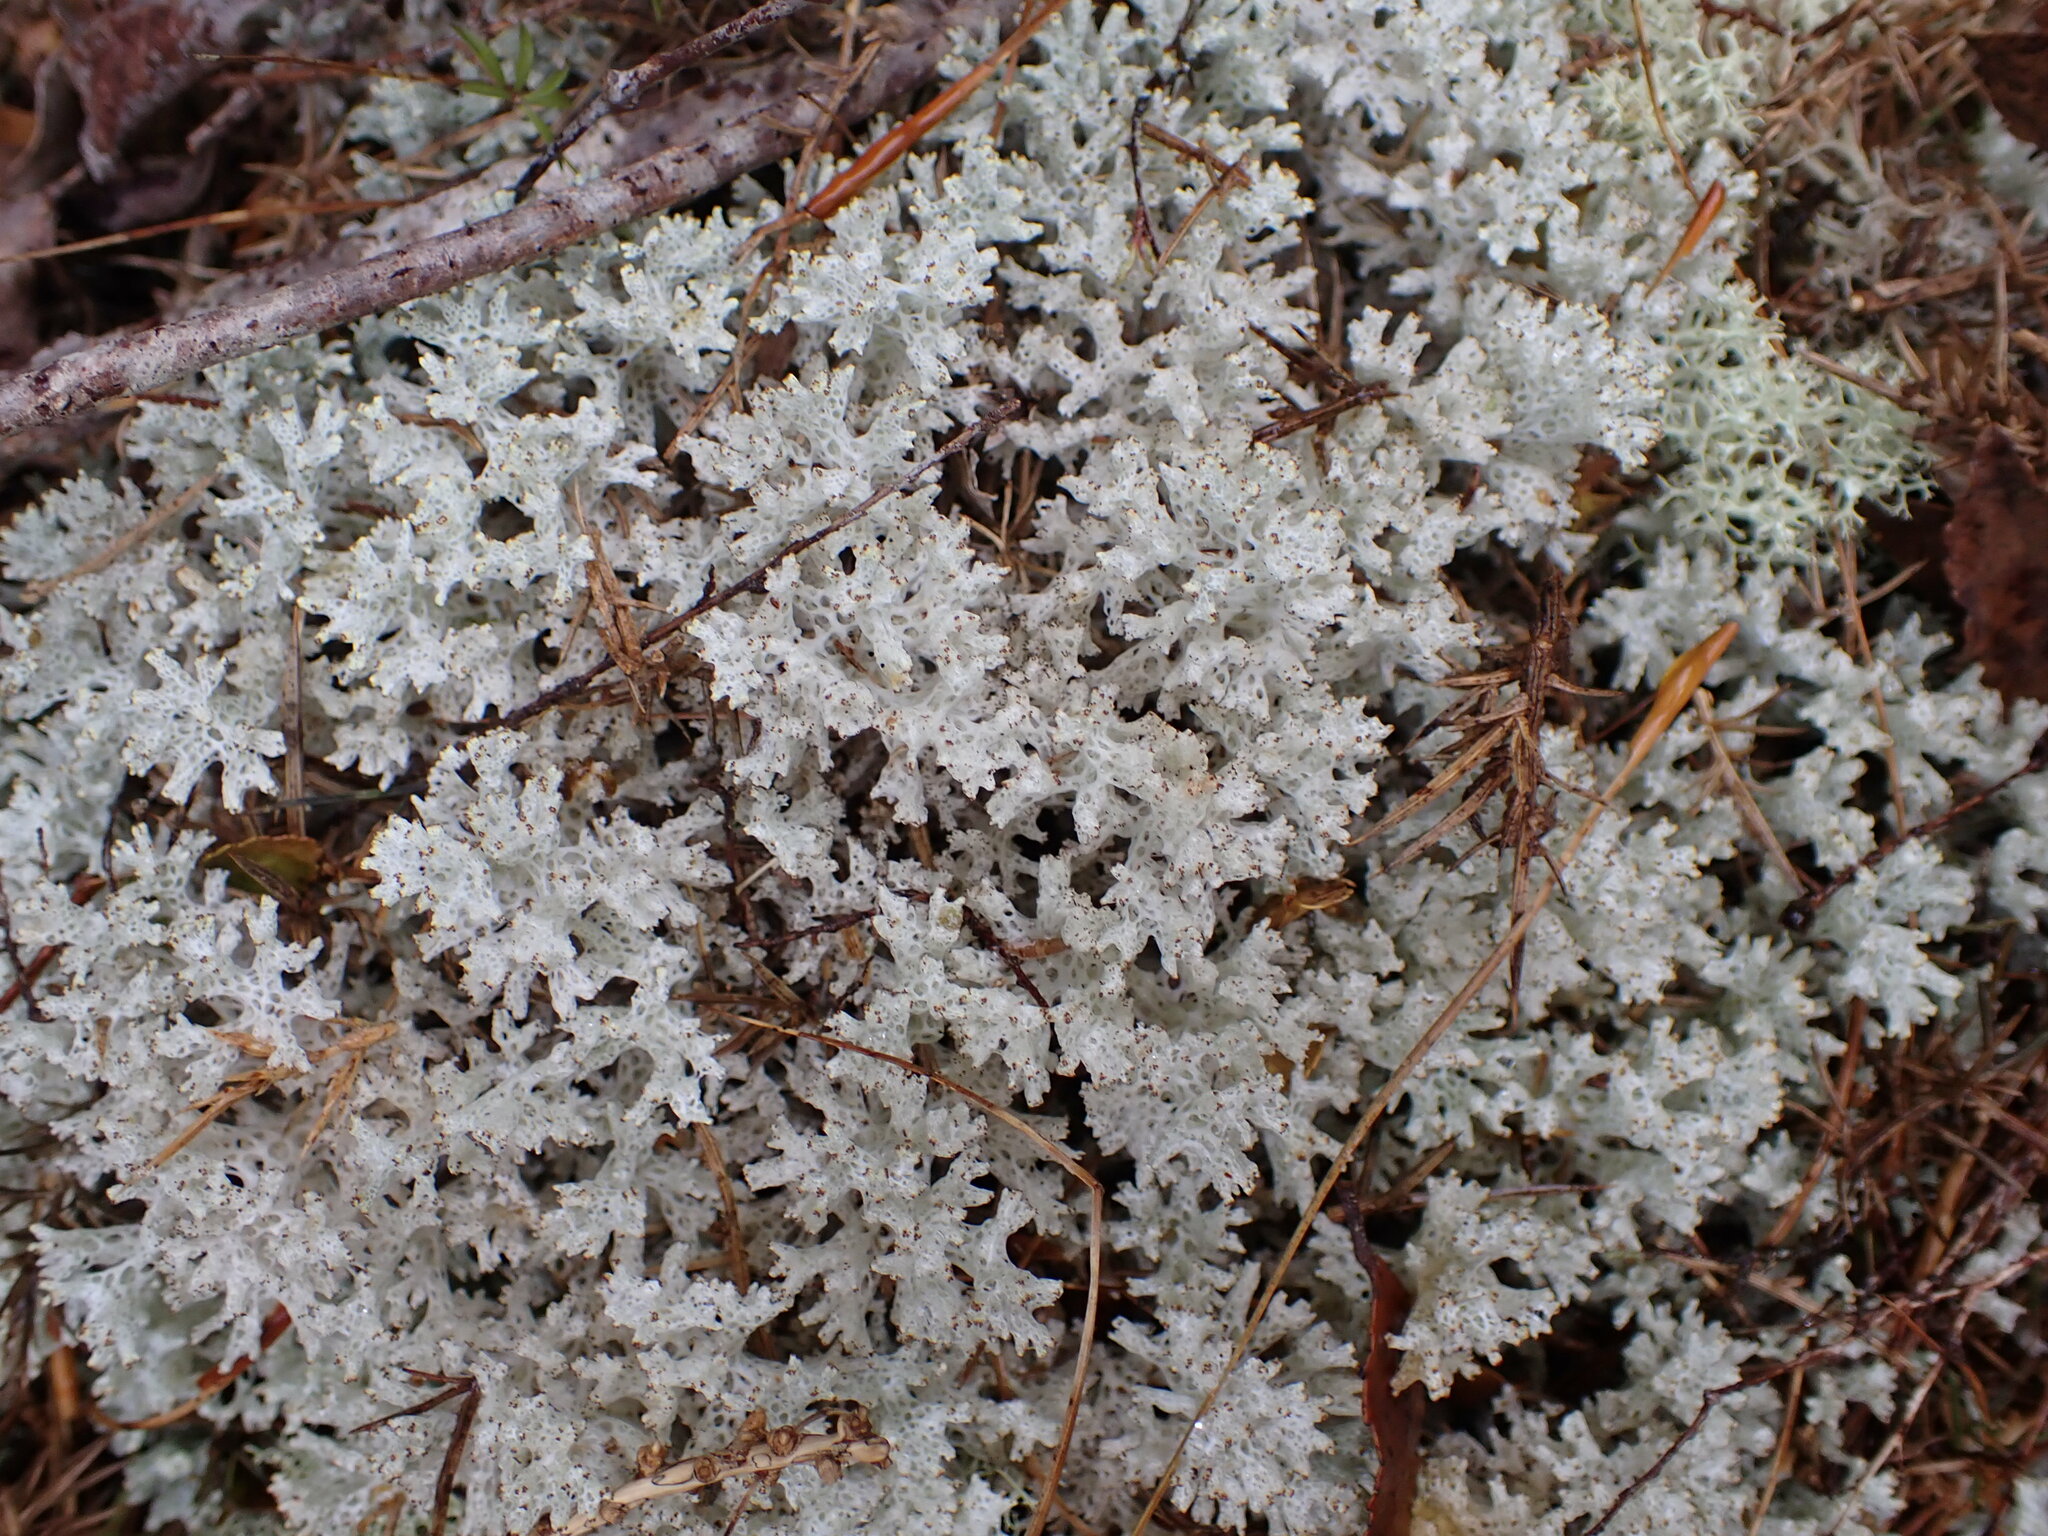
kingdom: Fungi
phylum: Ascomycota
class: Lecanoromycetes
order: Lecanorales
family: Cladoniaceae
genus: Pulchrocladia
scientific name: Pulchrocladia retipora
